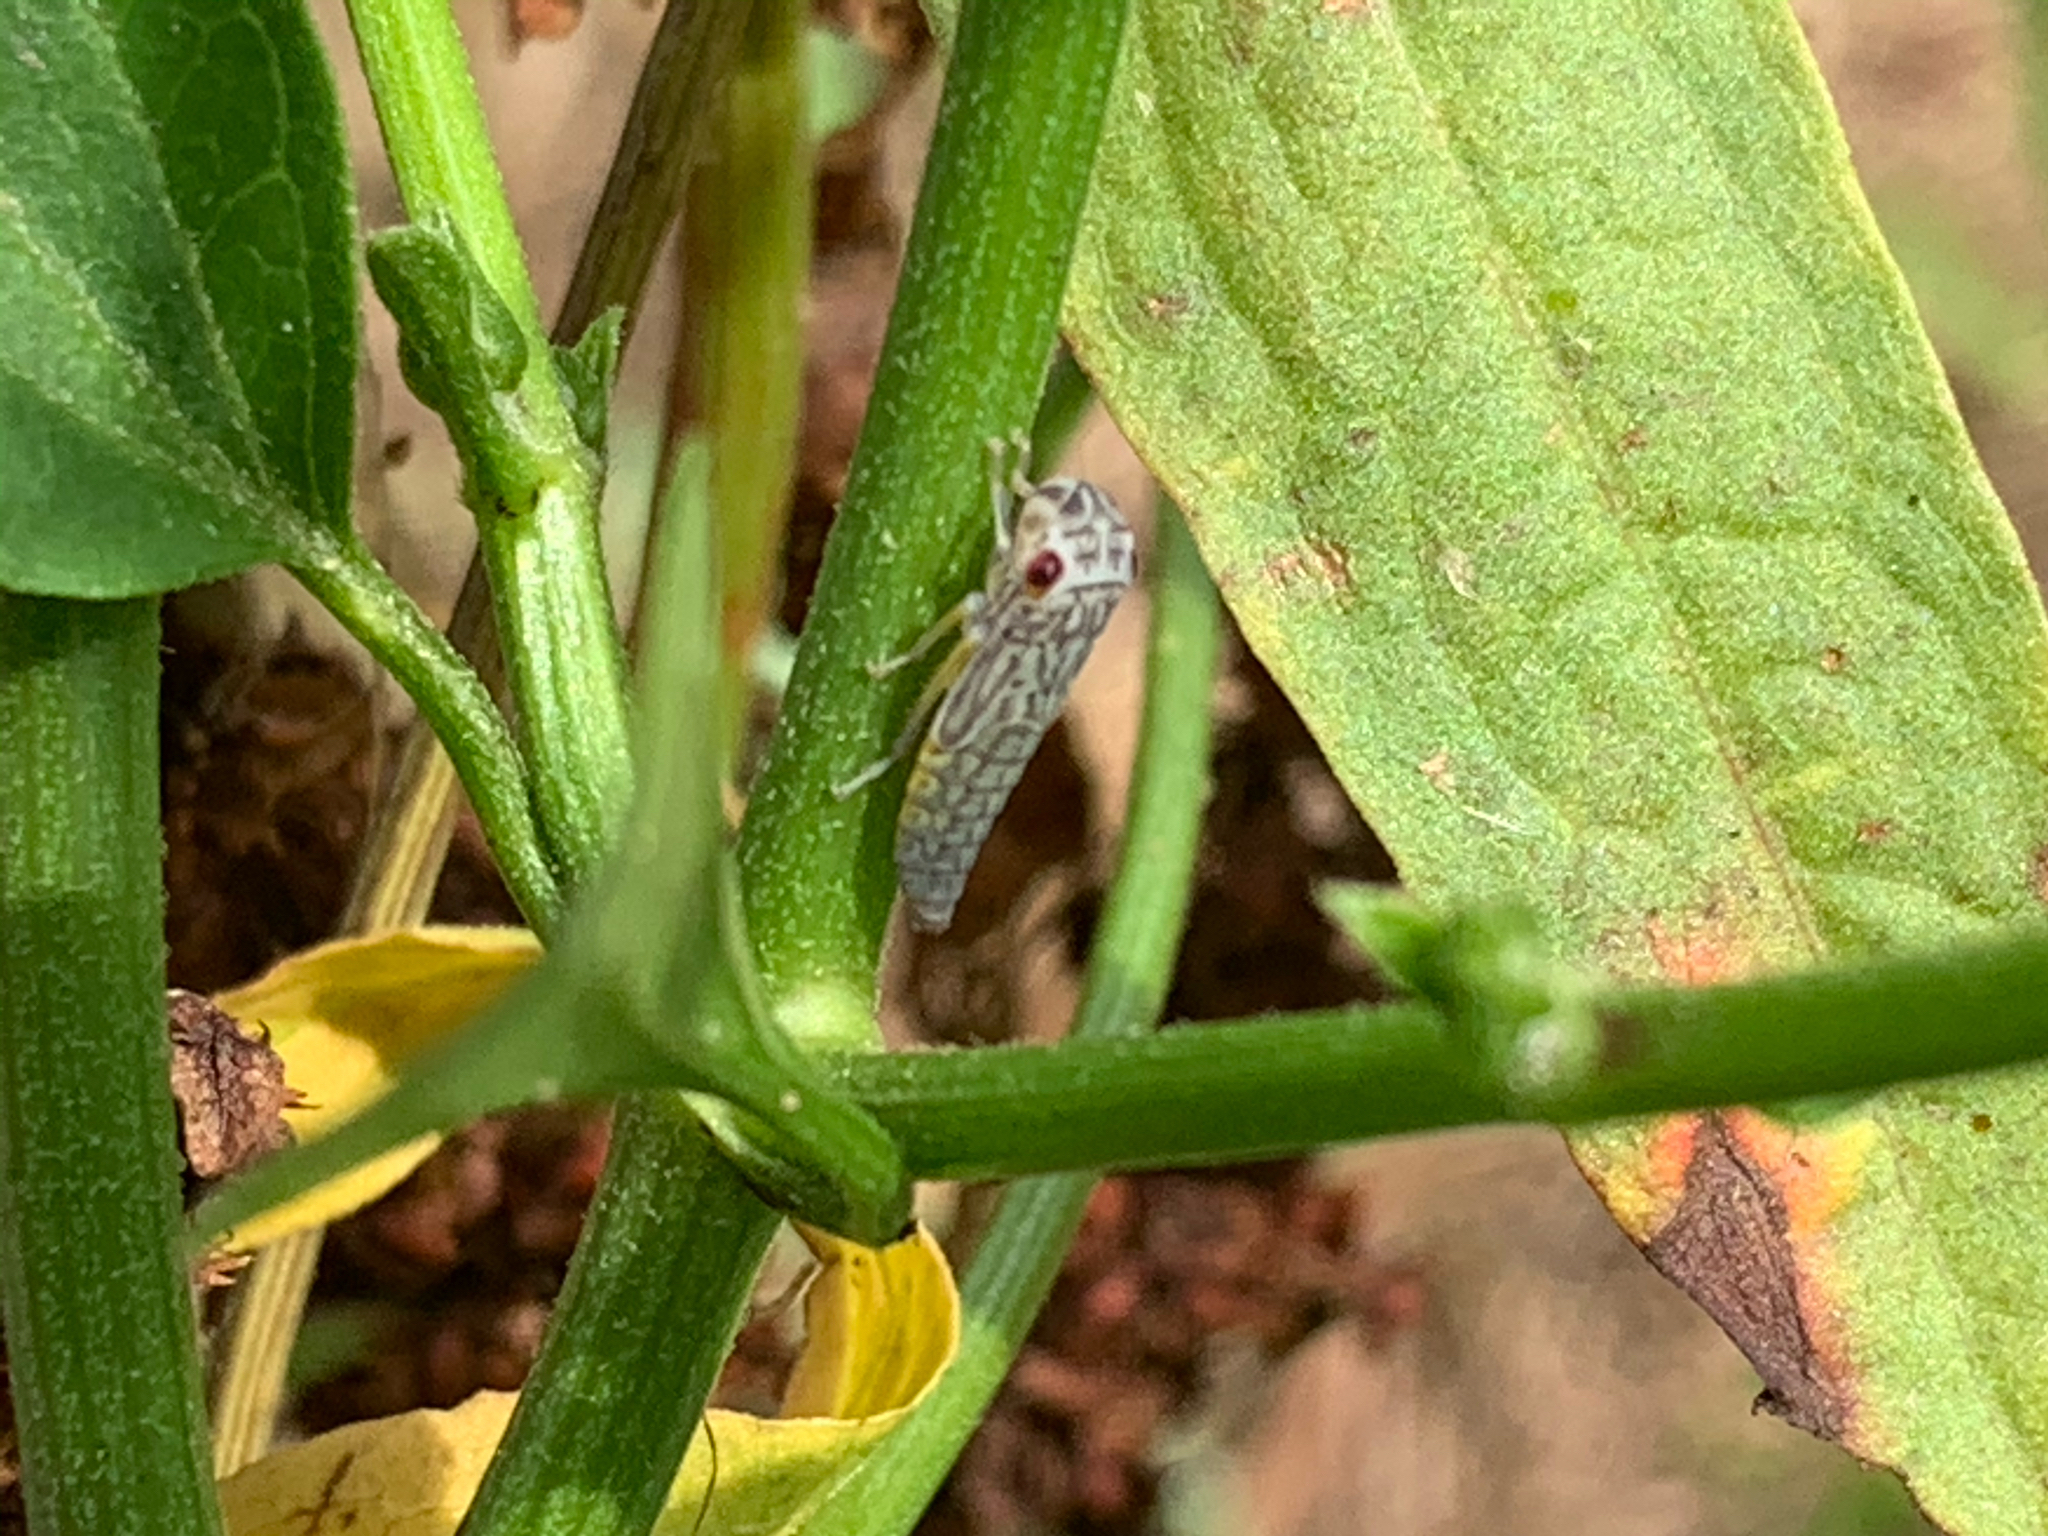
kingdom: Animalia
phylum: Arthropoda
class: Insecta
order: Hemiptera
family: Cicadellidae
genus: Oncometopia
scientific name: Oncometopia orbona
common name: Broad-headed sharpshooter
